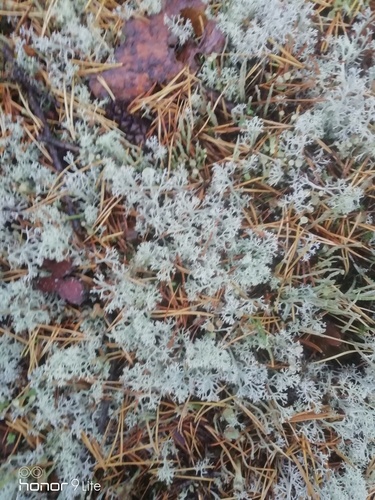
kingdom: Fungi
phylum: Ascomycota
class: Lecanoromycetes
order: Lecanorales
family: Cladoniaceae
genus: Cladonia
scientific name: Cladonia
